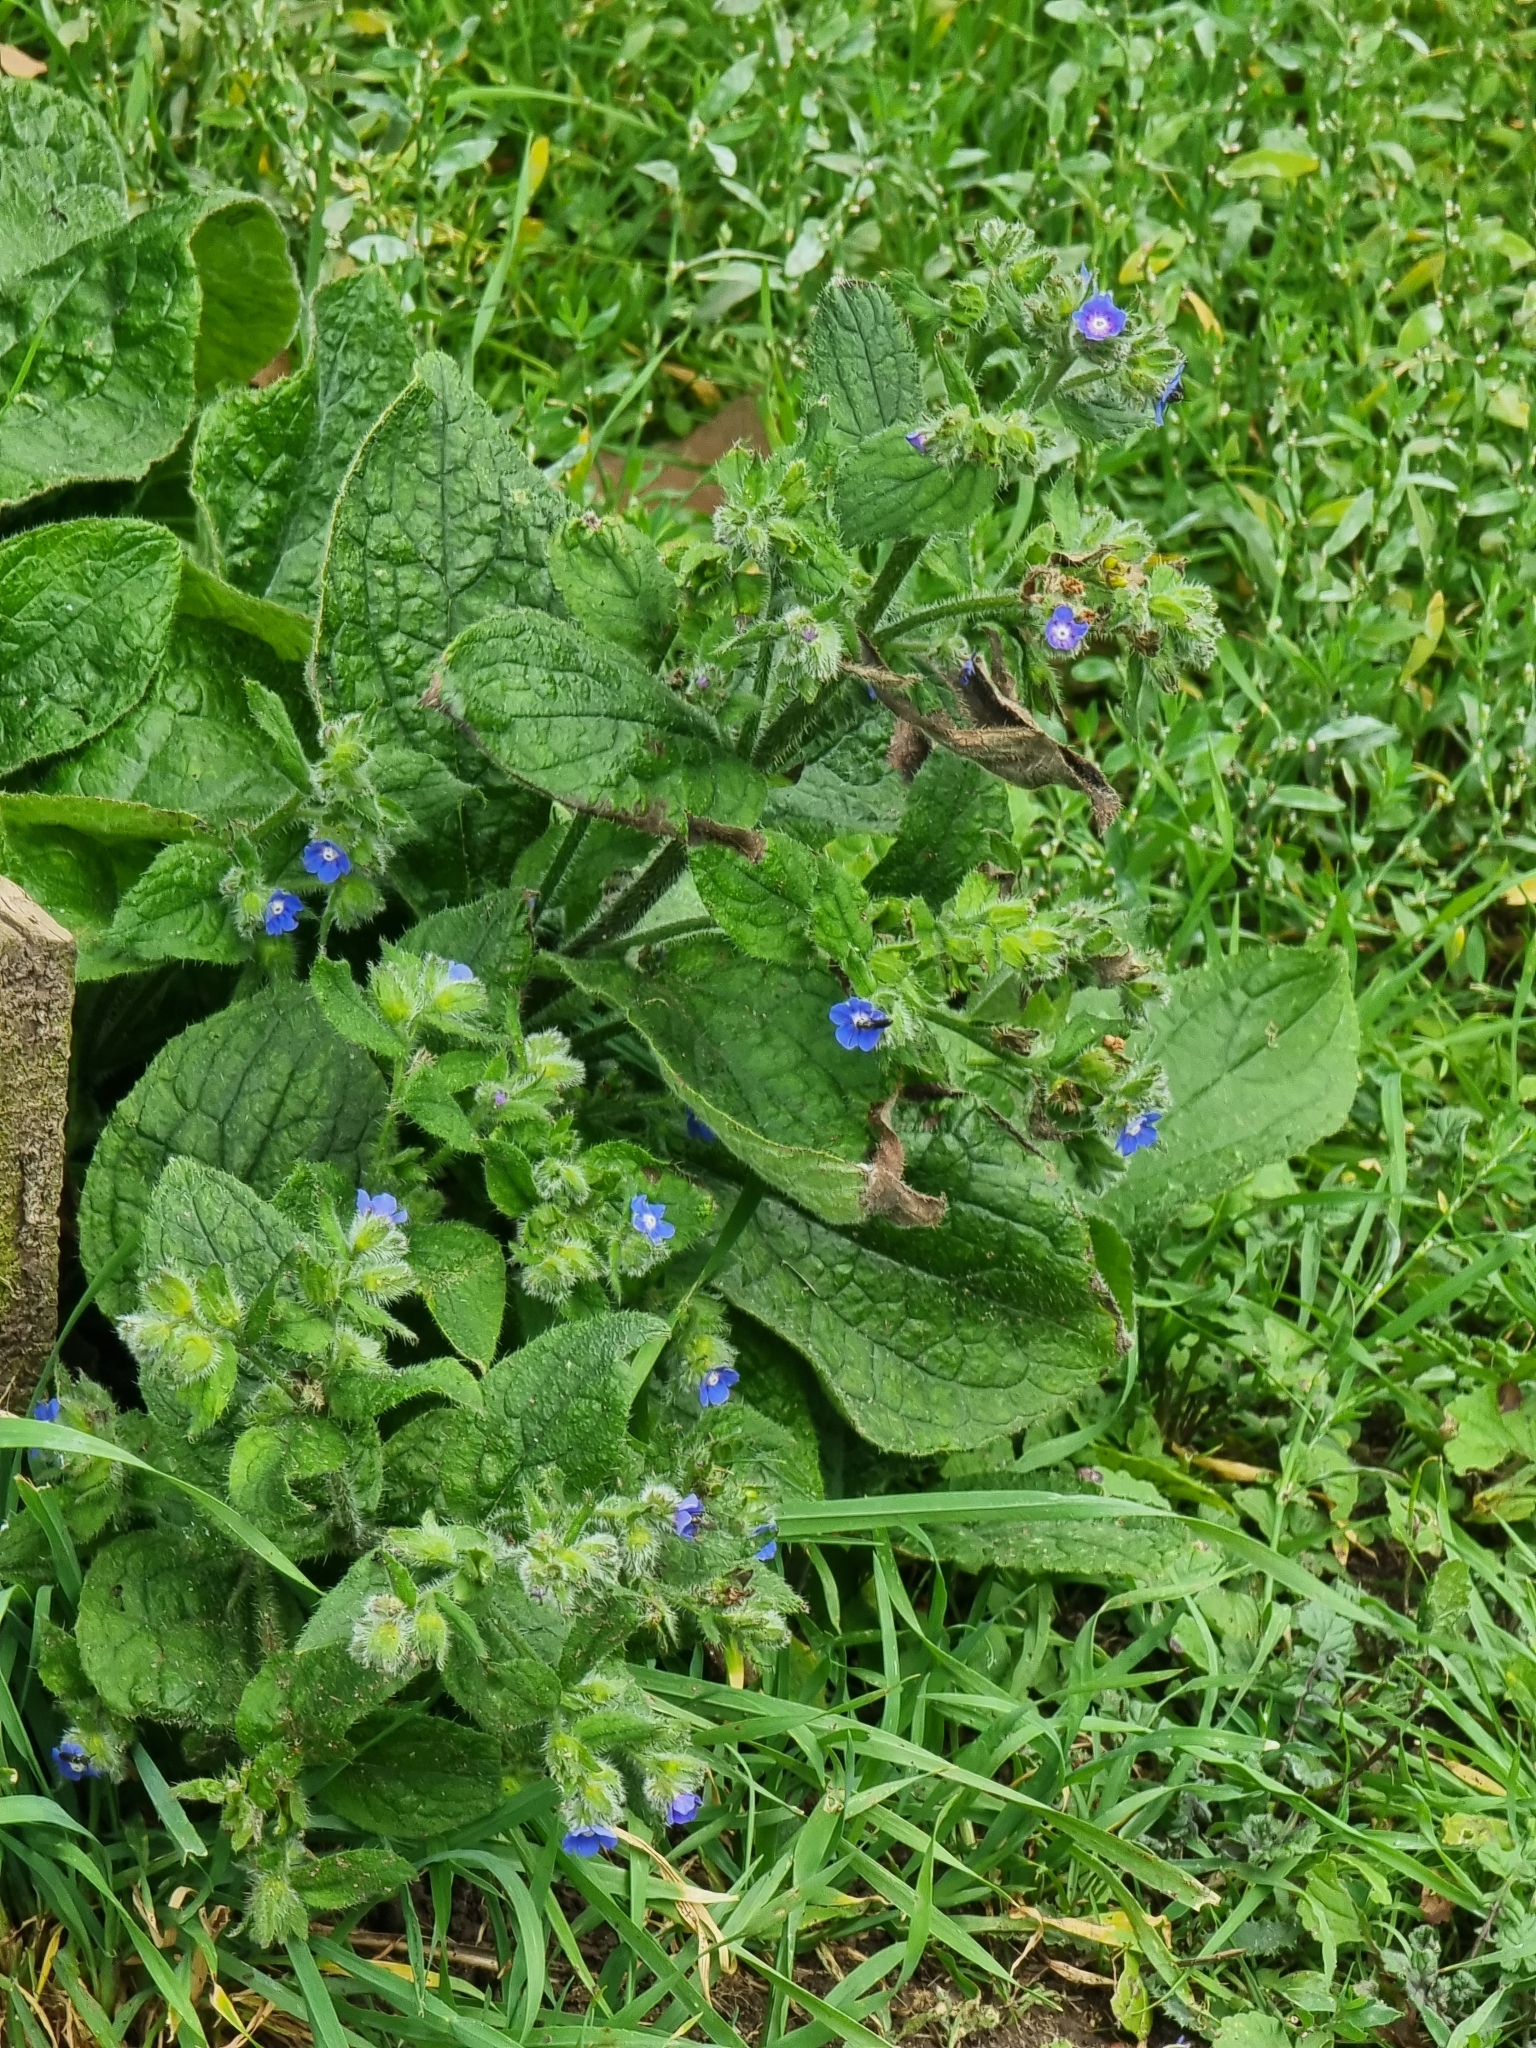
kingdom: Plantae
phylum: Tracheophyta
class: Magnoliopsida
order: Boraginales
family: Boraginaceae
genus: Pentaglottis
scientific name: Pentaglottis sempervirens
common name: Green alkanet
